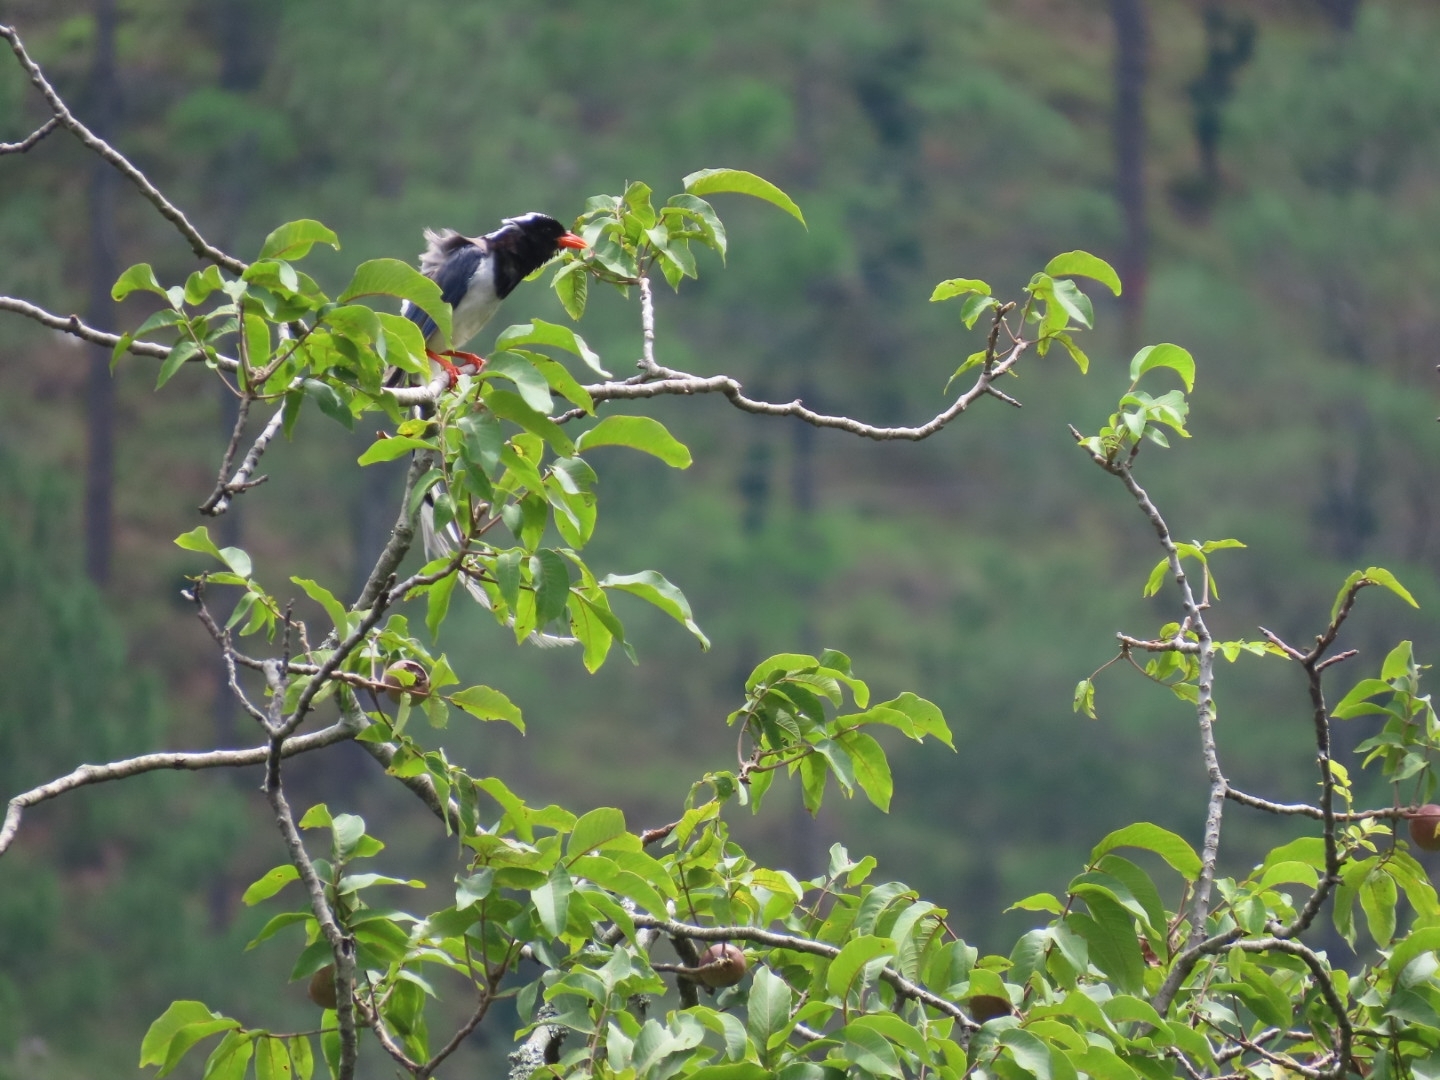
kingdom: Animalia
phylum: Chordata
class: Aves
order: Passeriformes
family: Corvidae
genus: Urocissa
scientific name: Urocissa erythroryncha
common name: Red-billed blue magpie
